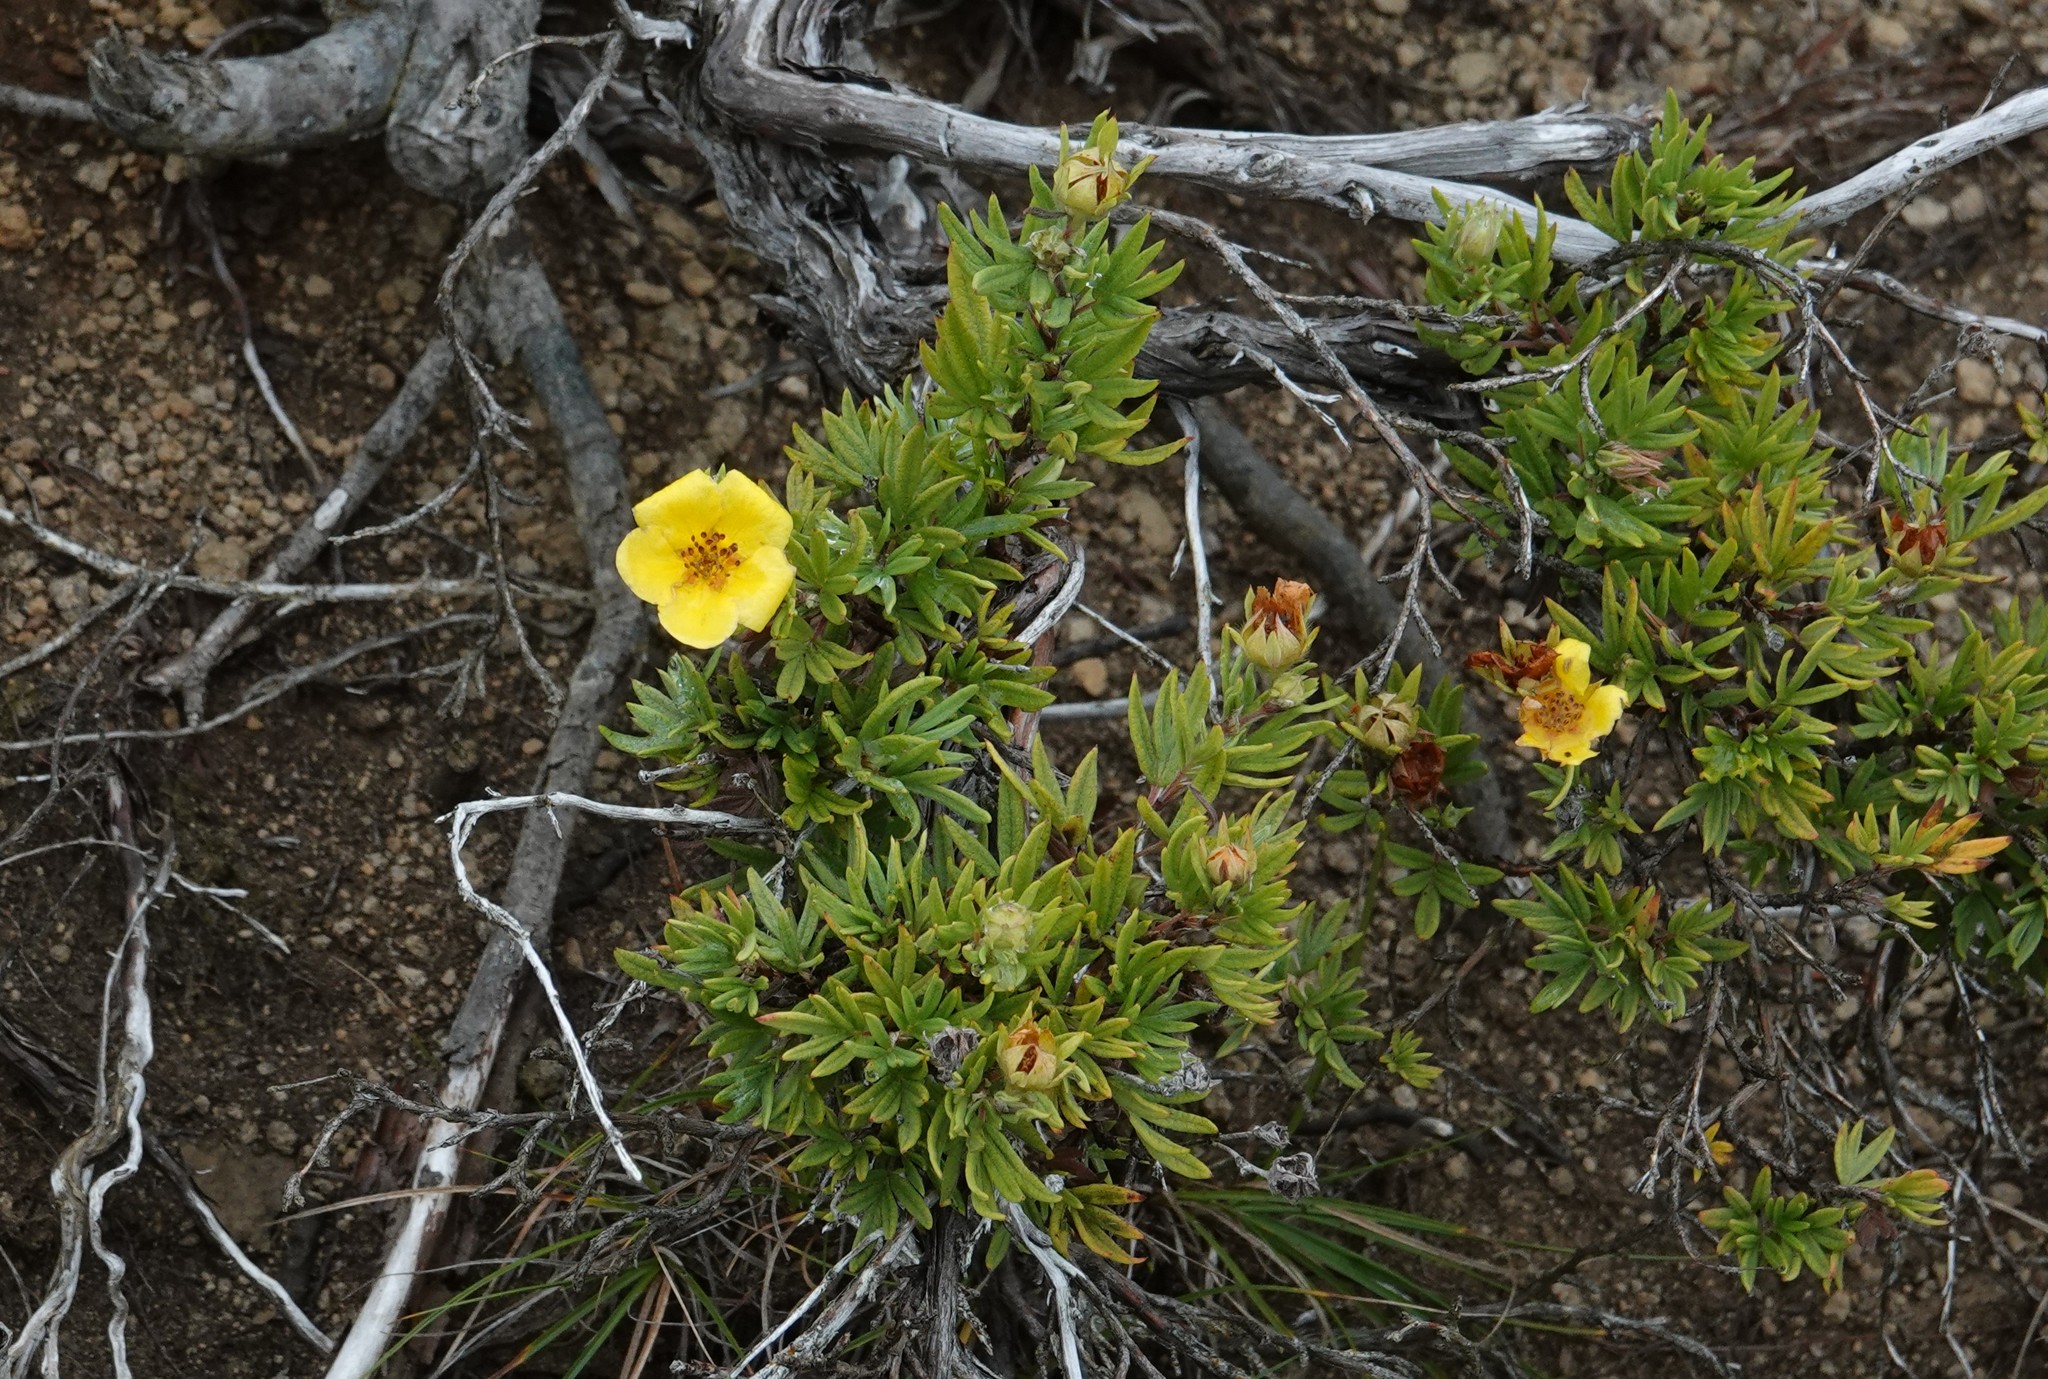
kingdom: Plantae
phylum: Tracheophyta
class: Magnoliopsida
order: Rosales
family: Rosaceae
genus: Dasiphora
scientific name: Dasiphora fruticosa
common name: Shrubby cinquefoil
